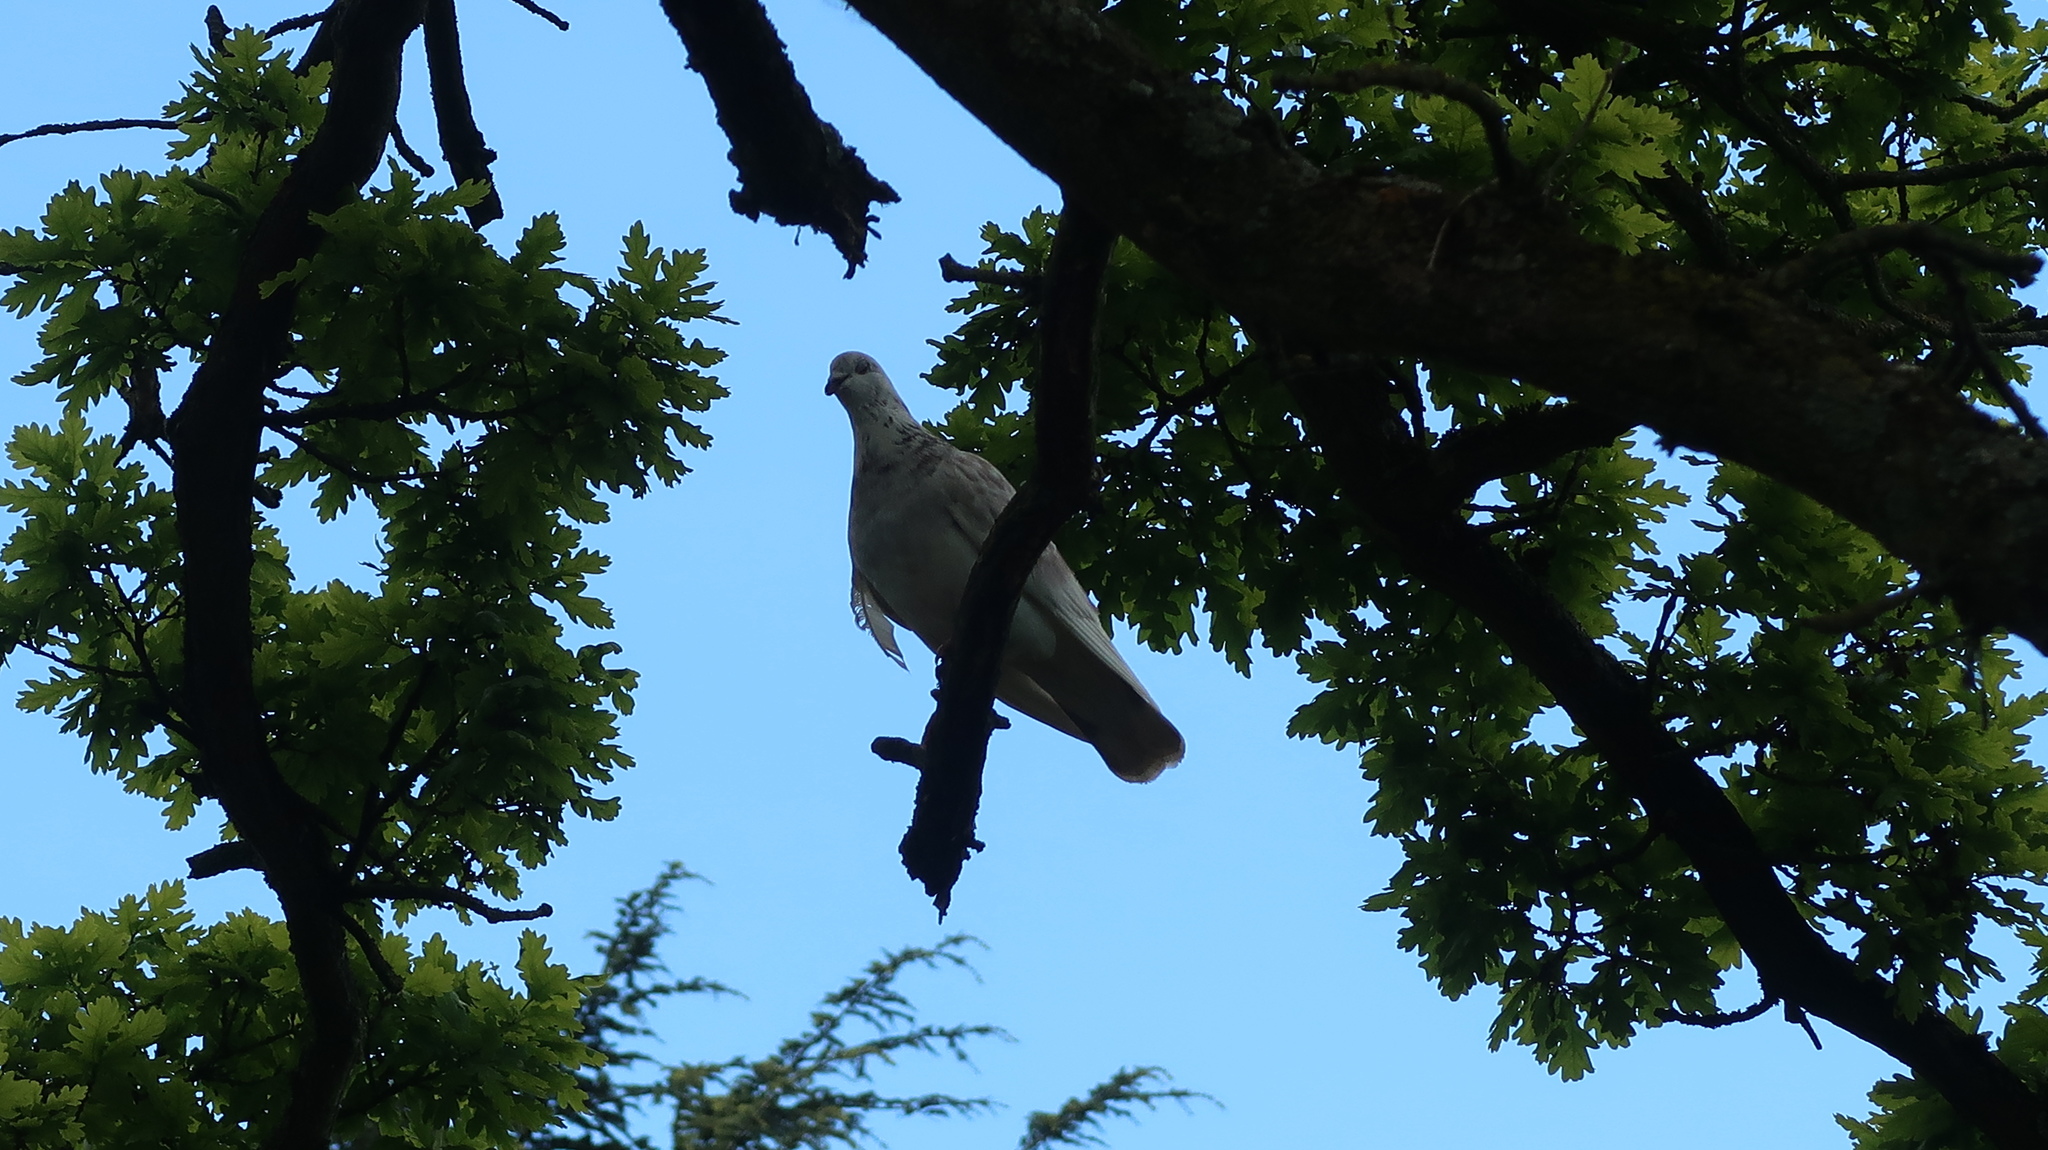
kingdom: Animalia
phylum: Chordata
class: Aves
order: Columbiformes
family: Columbidae
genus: Columba
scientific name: Columba livia
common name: Rock pigeon
